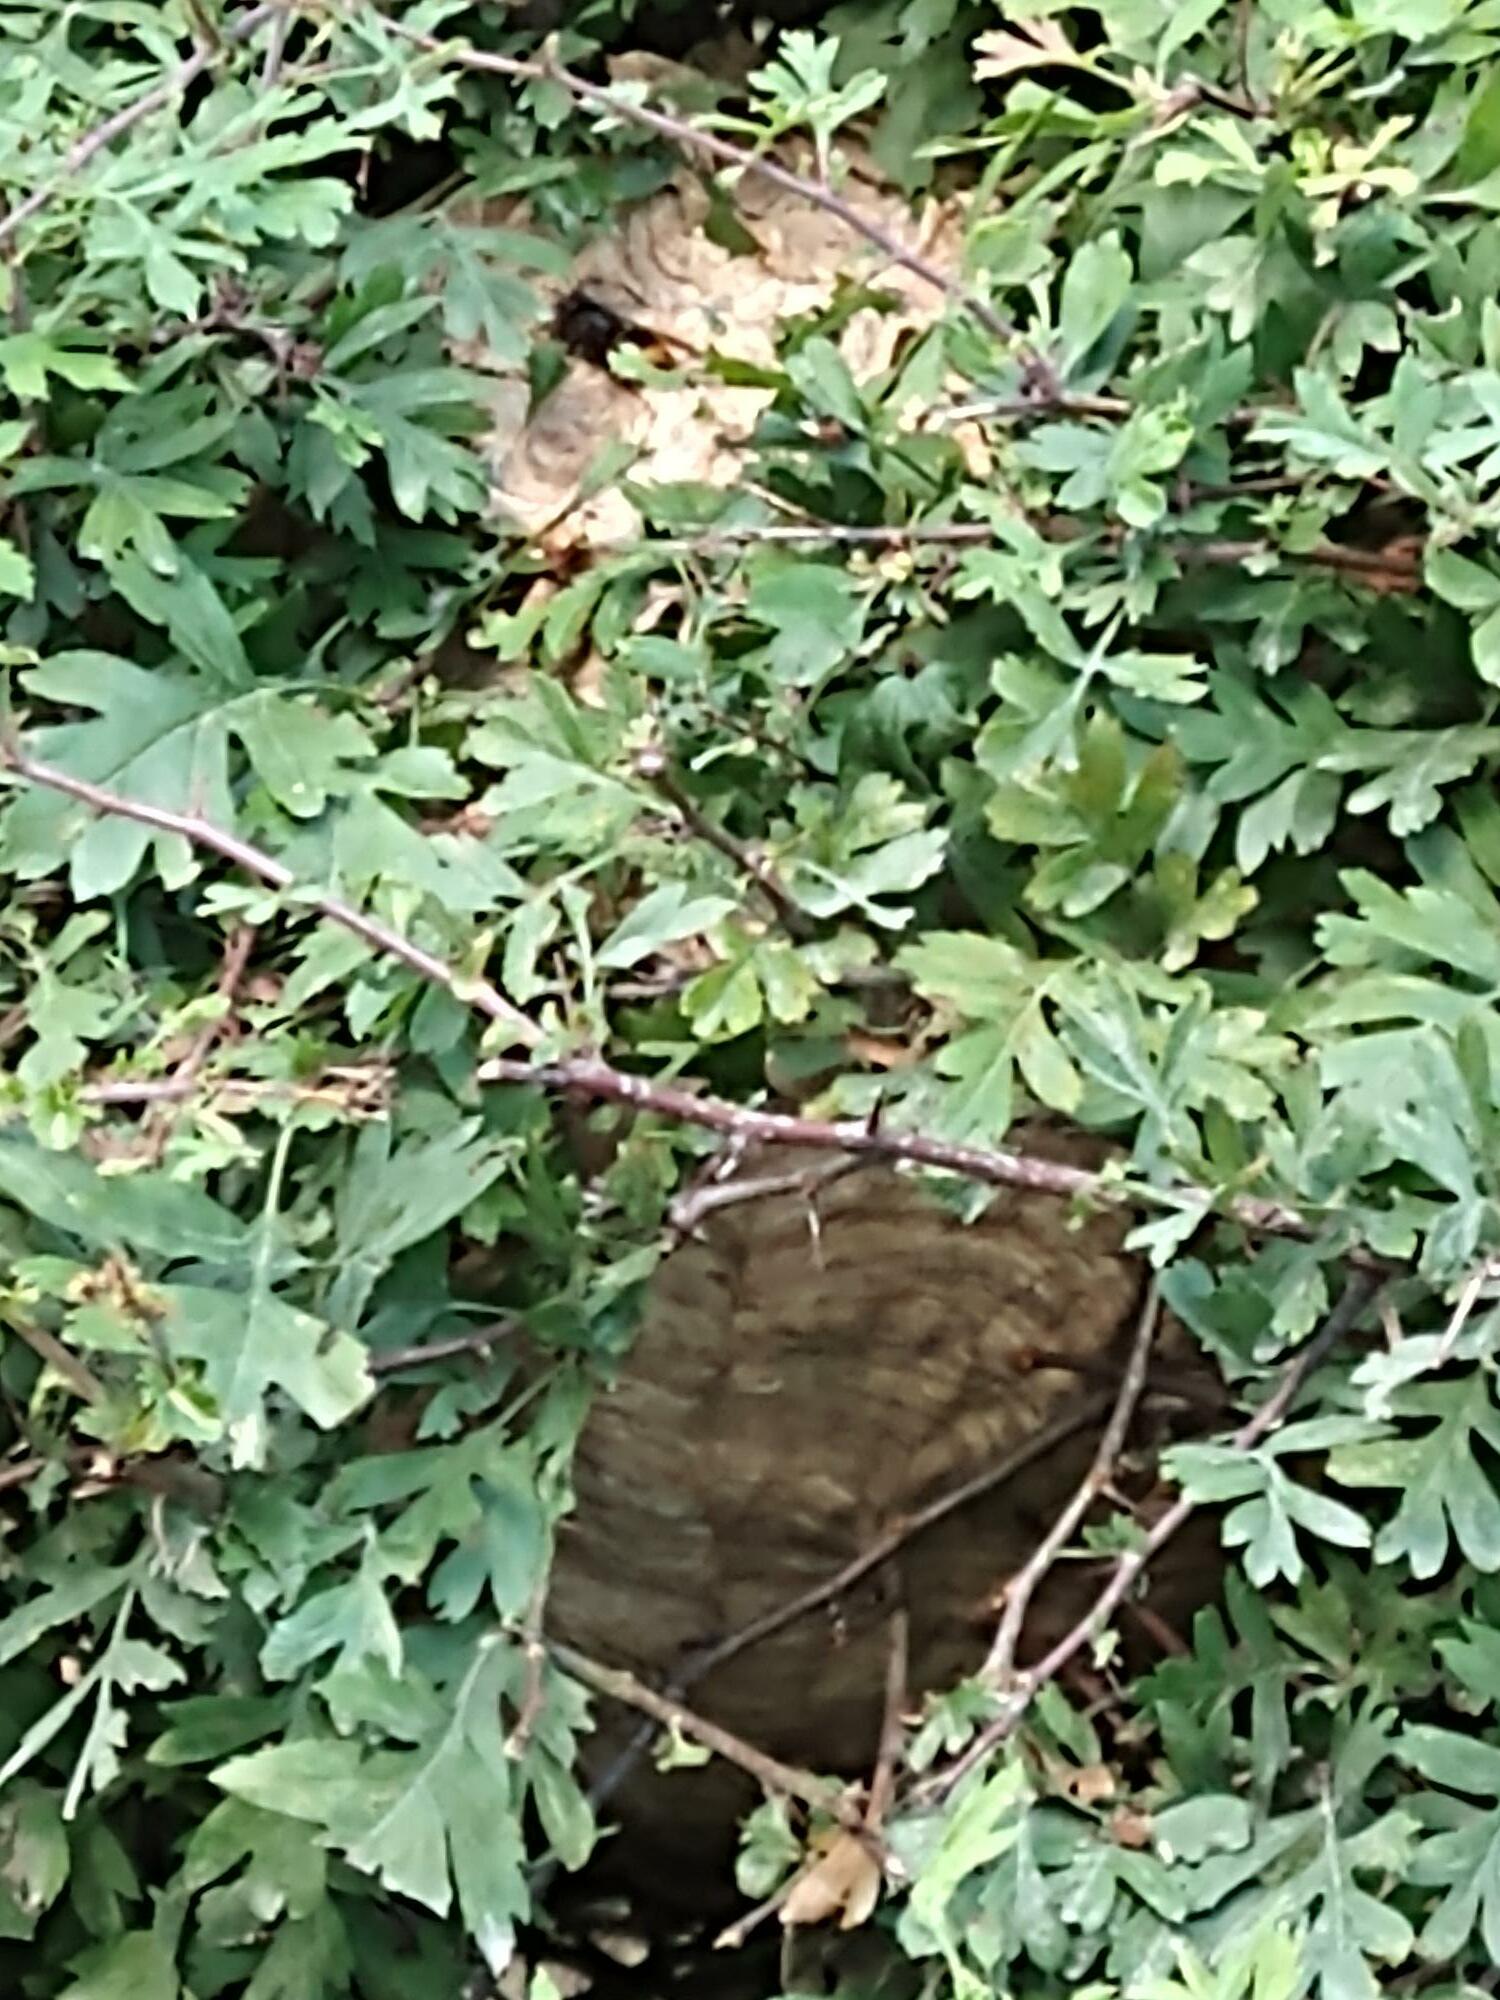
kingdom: Animalia
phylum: Arthropoda
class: Insecta
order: Hymenoptera
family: Vespidae
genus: Vespa
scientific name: Vespa velutina
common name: Asian hornet
